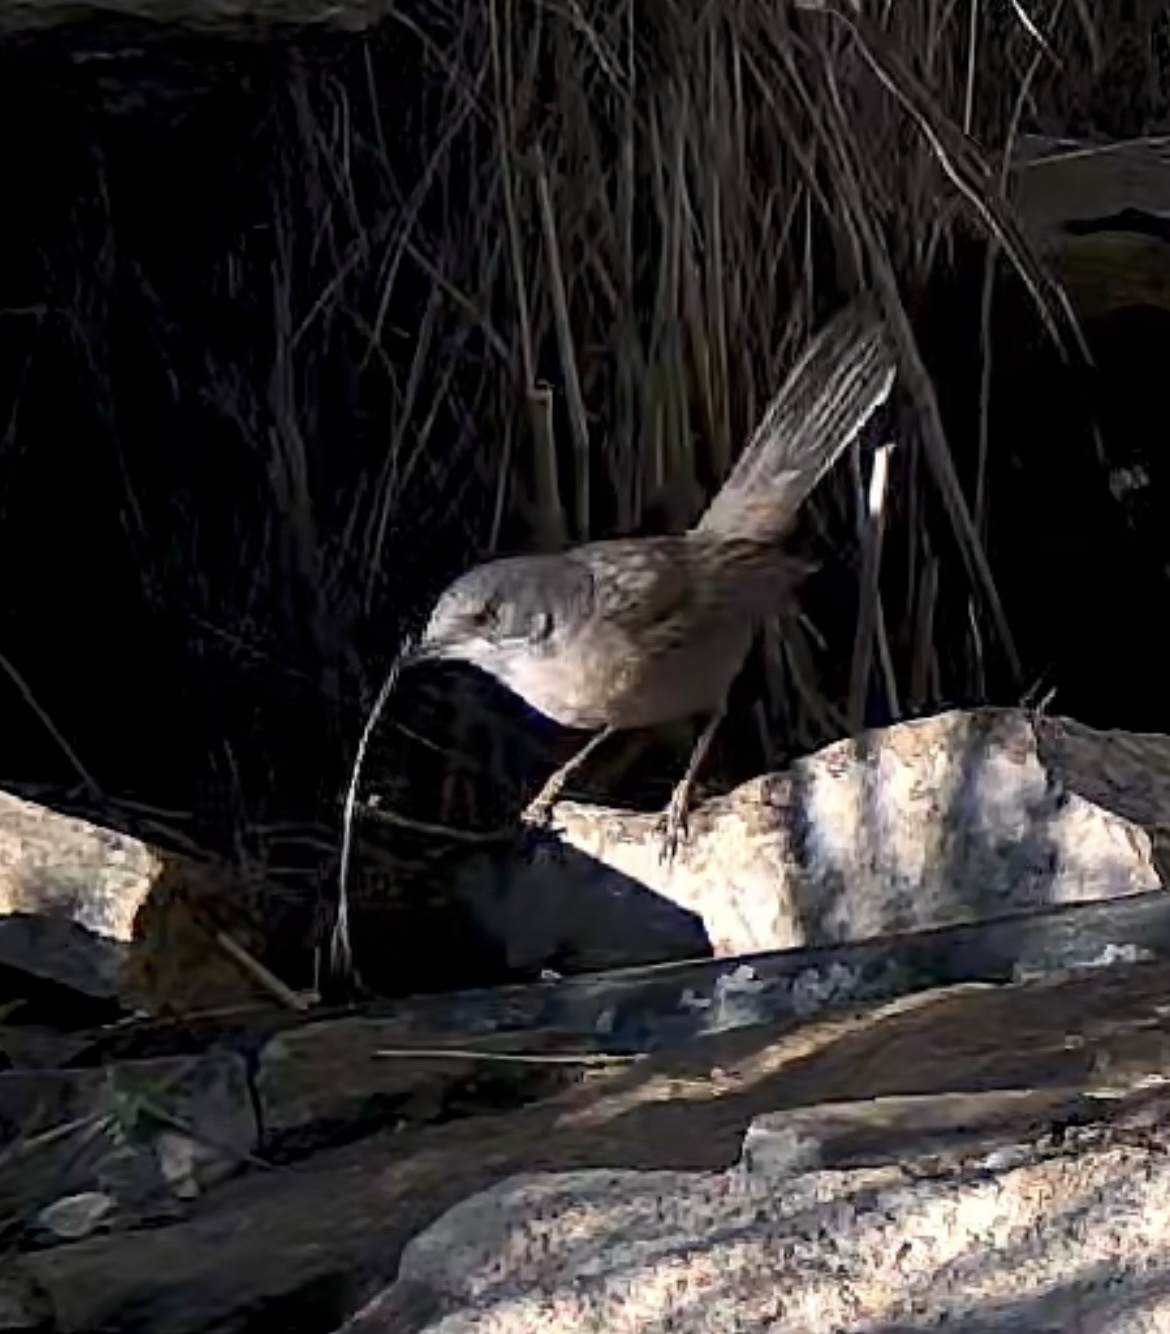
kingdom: Animalia
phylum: Chordata
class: Aves
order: Passeriformes
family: Sylviidae
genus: Curruca
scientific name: Curruca melanocephala
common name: Sardinian warbler
